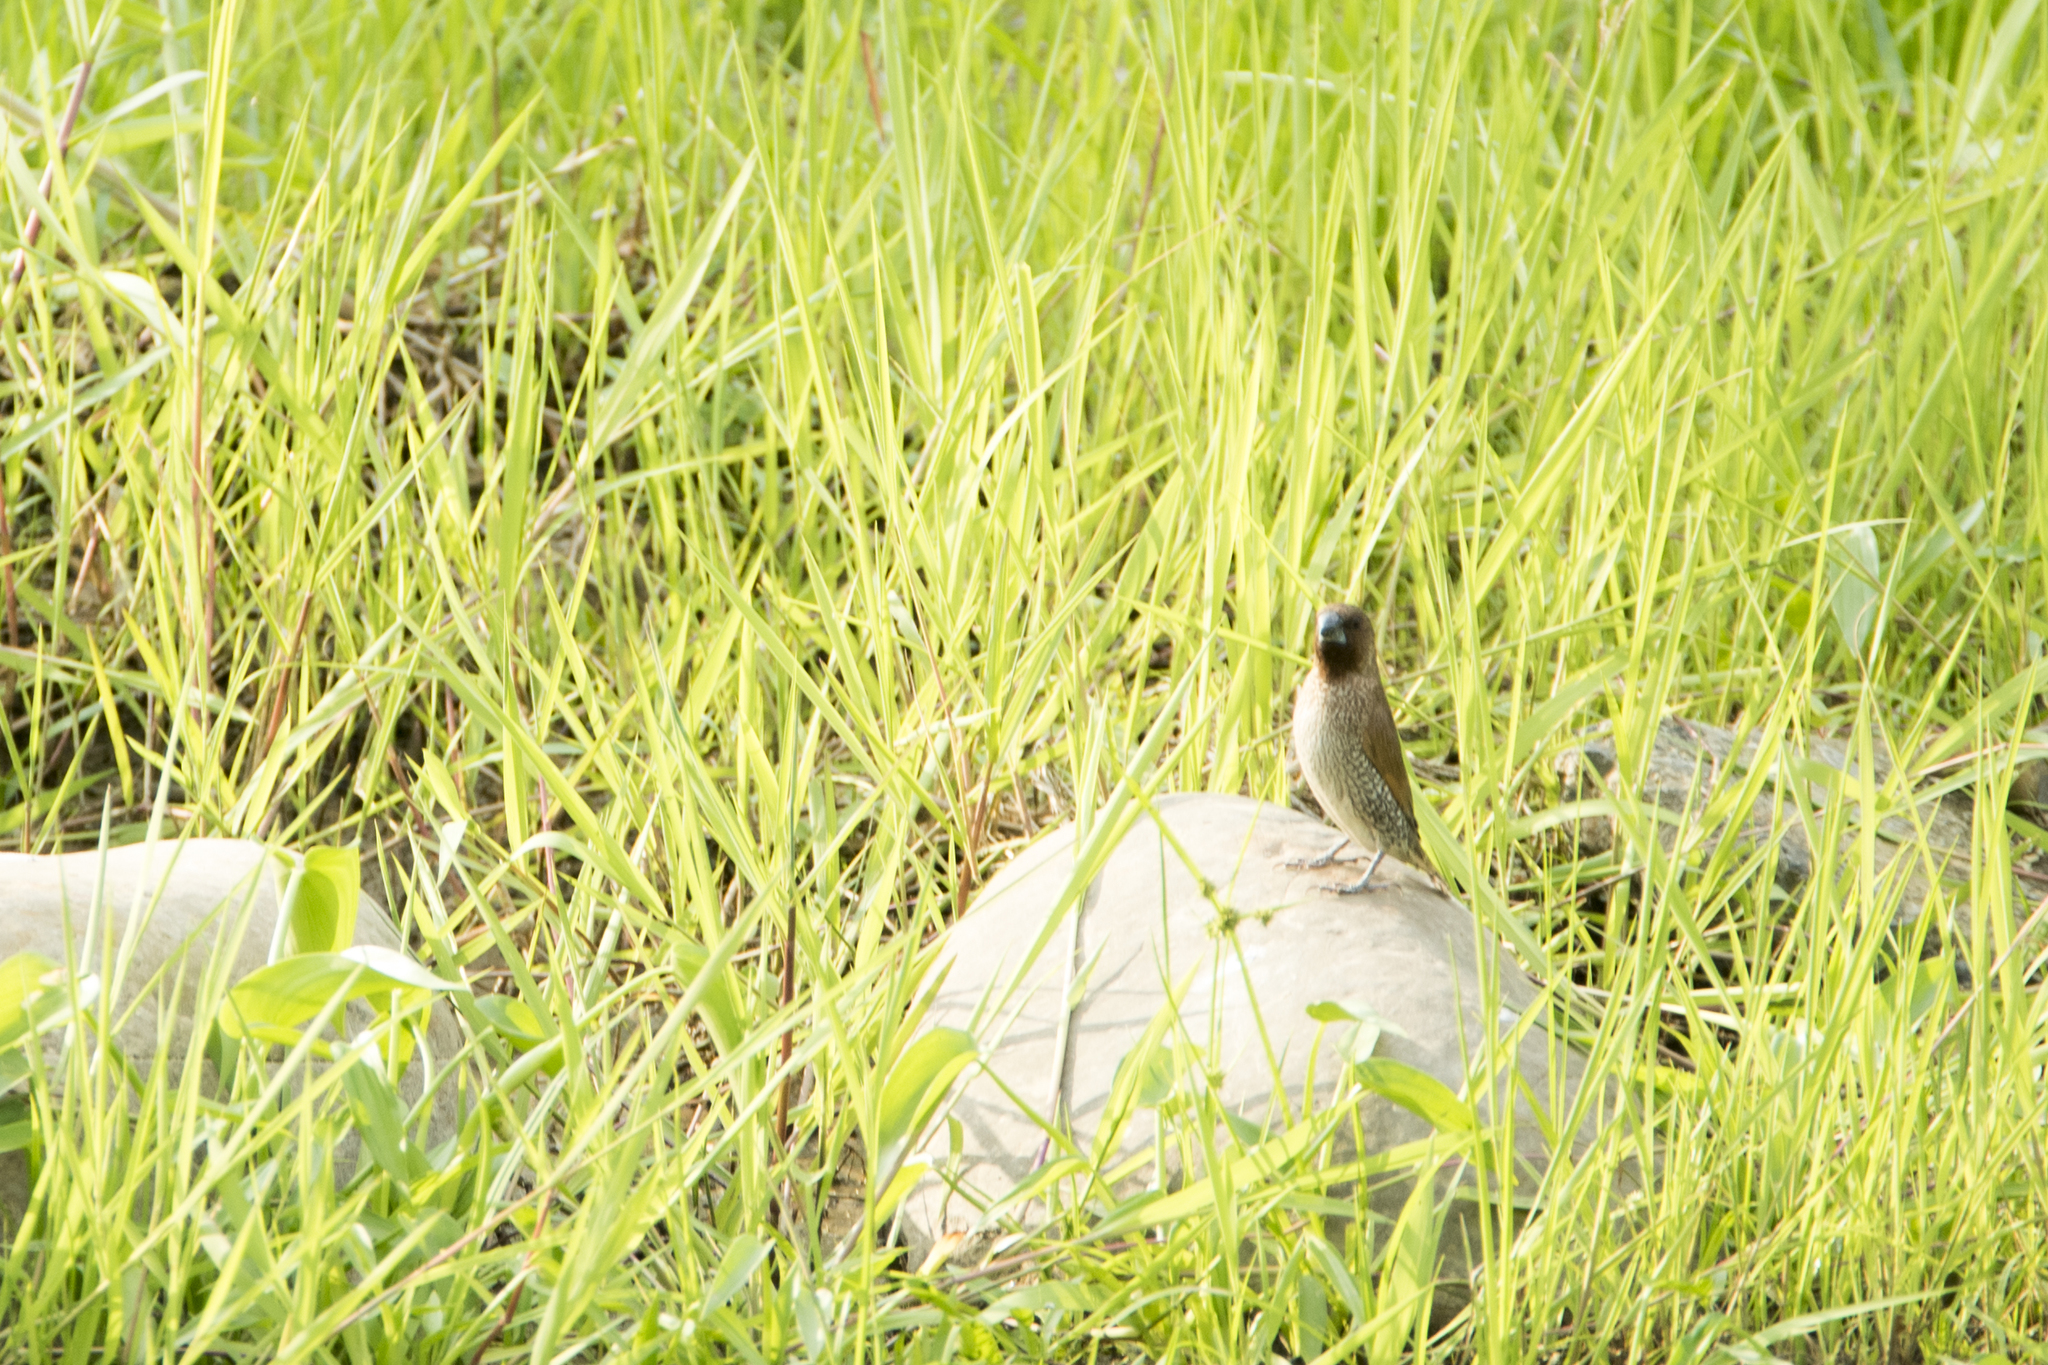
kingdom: Animalia
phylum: Chordata
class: Aves
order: Passeriformes
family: Estrildidae
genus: Lonchura
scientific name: Lonchura punctulata
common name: Scaly-breasted munia
